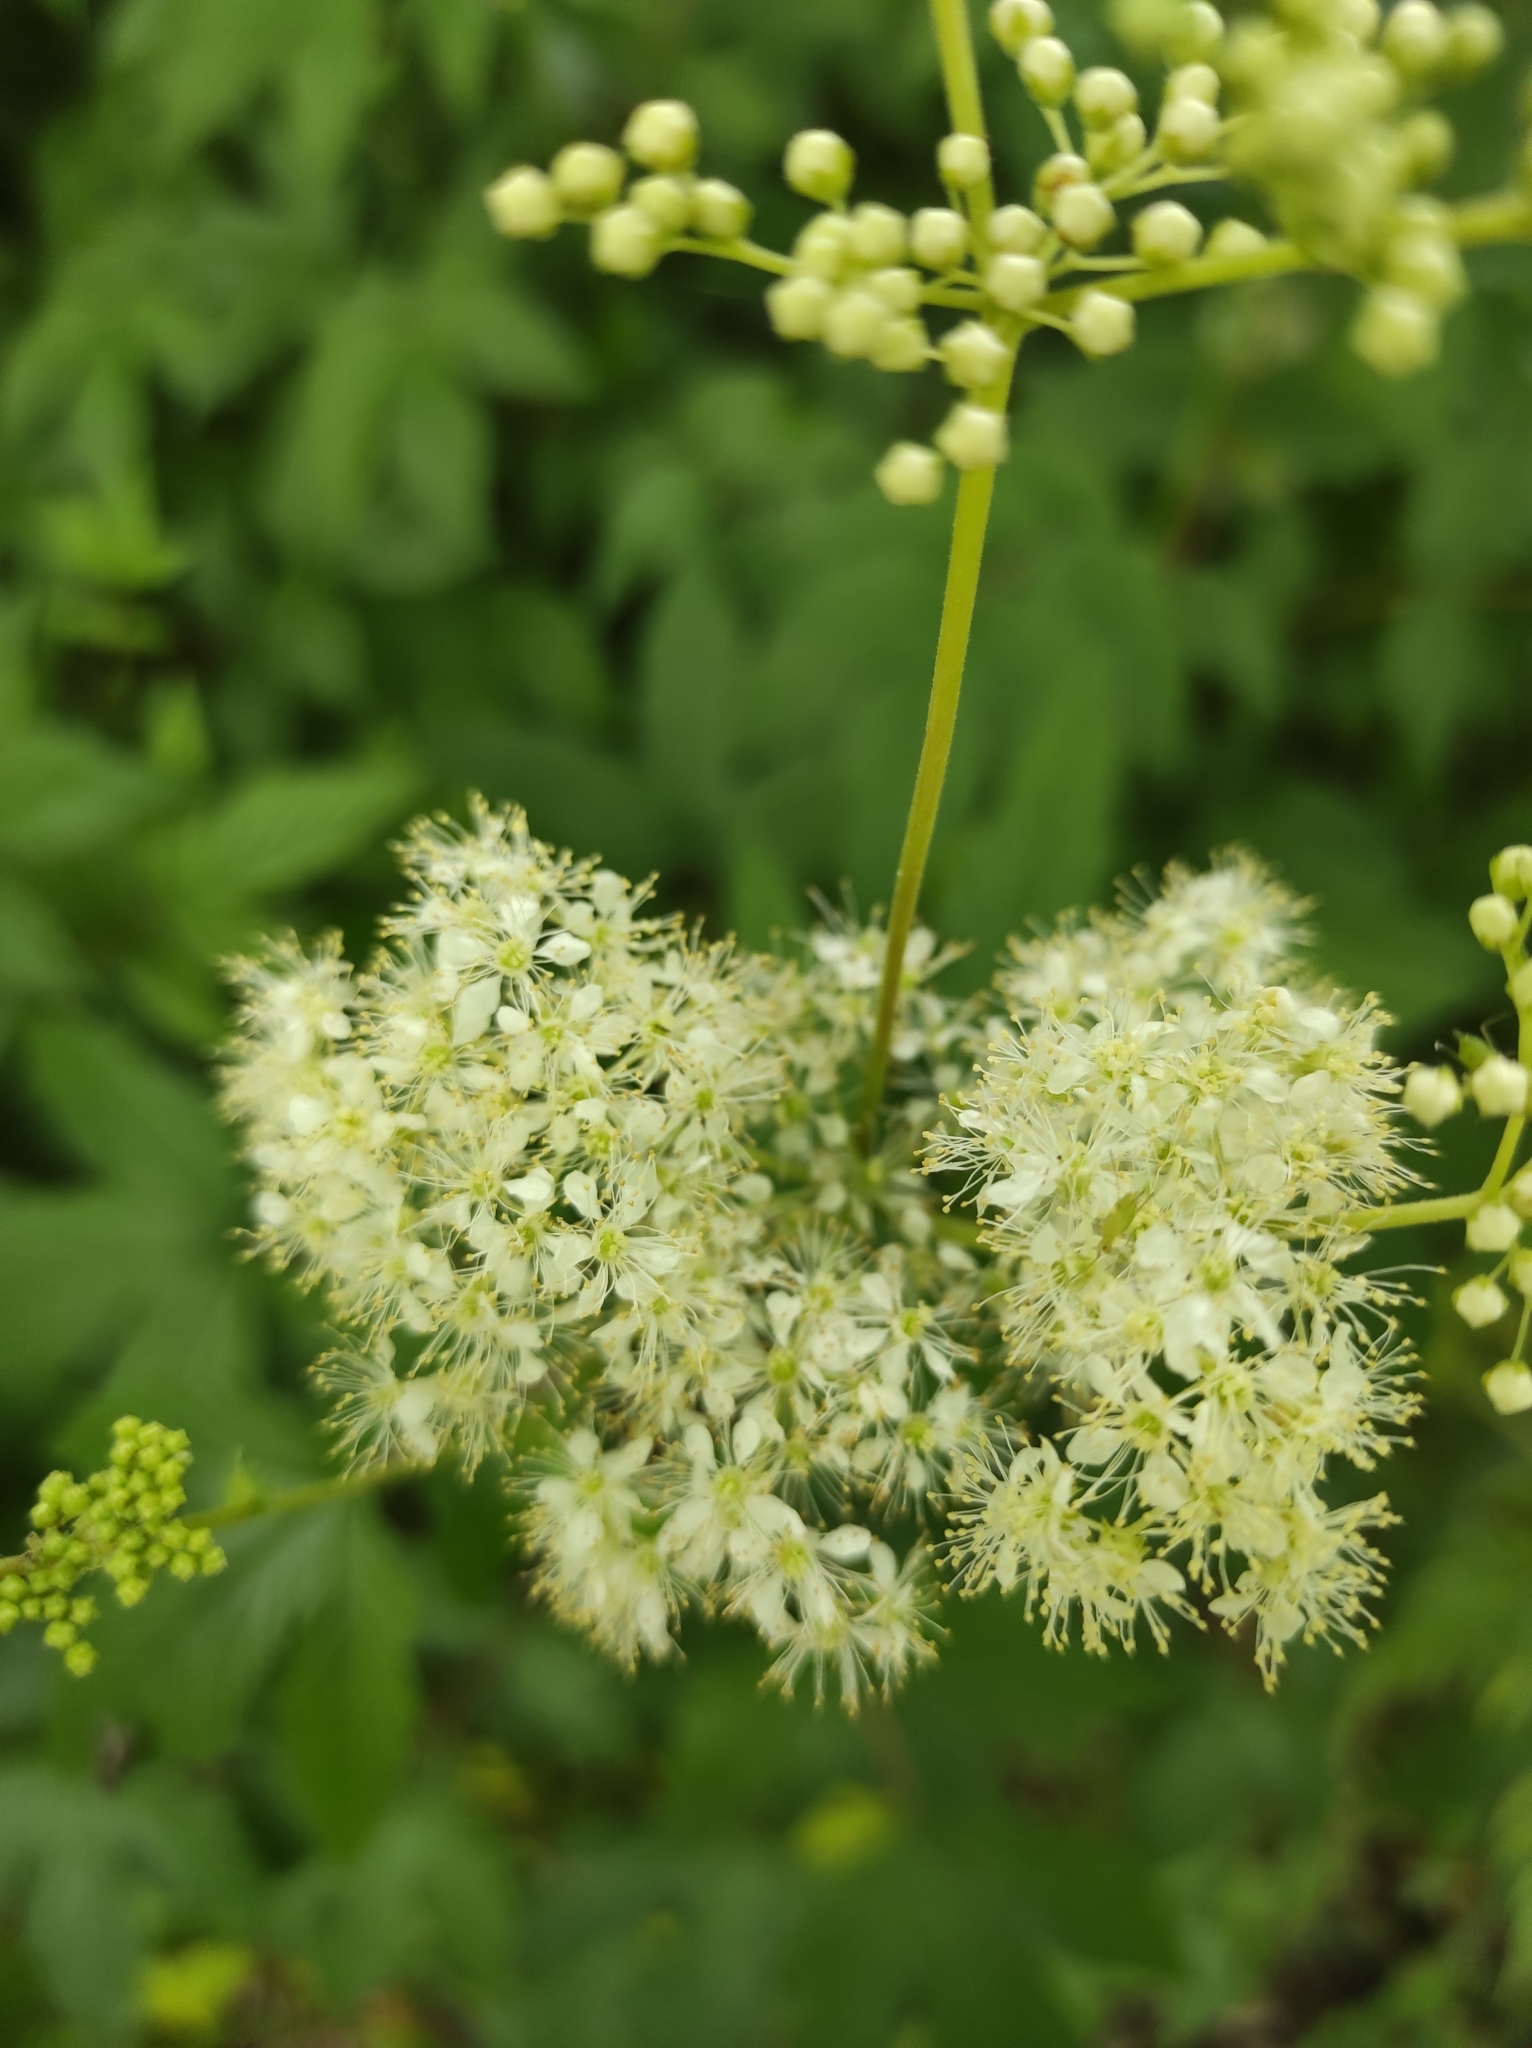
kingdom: Plantae
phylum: Tracheophyta
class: Magnoliopsida
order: Rosales
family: Rosaceae
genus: Filipendula
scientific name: Filipendula ulmaria
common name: Meadowsweet
